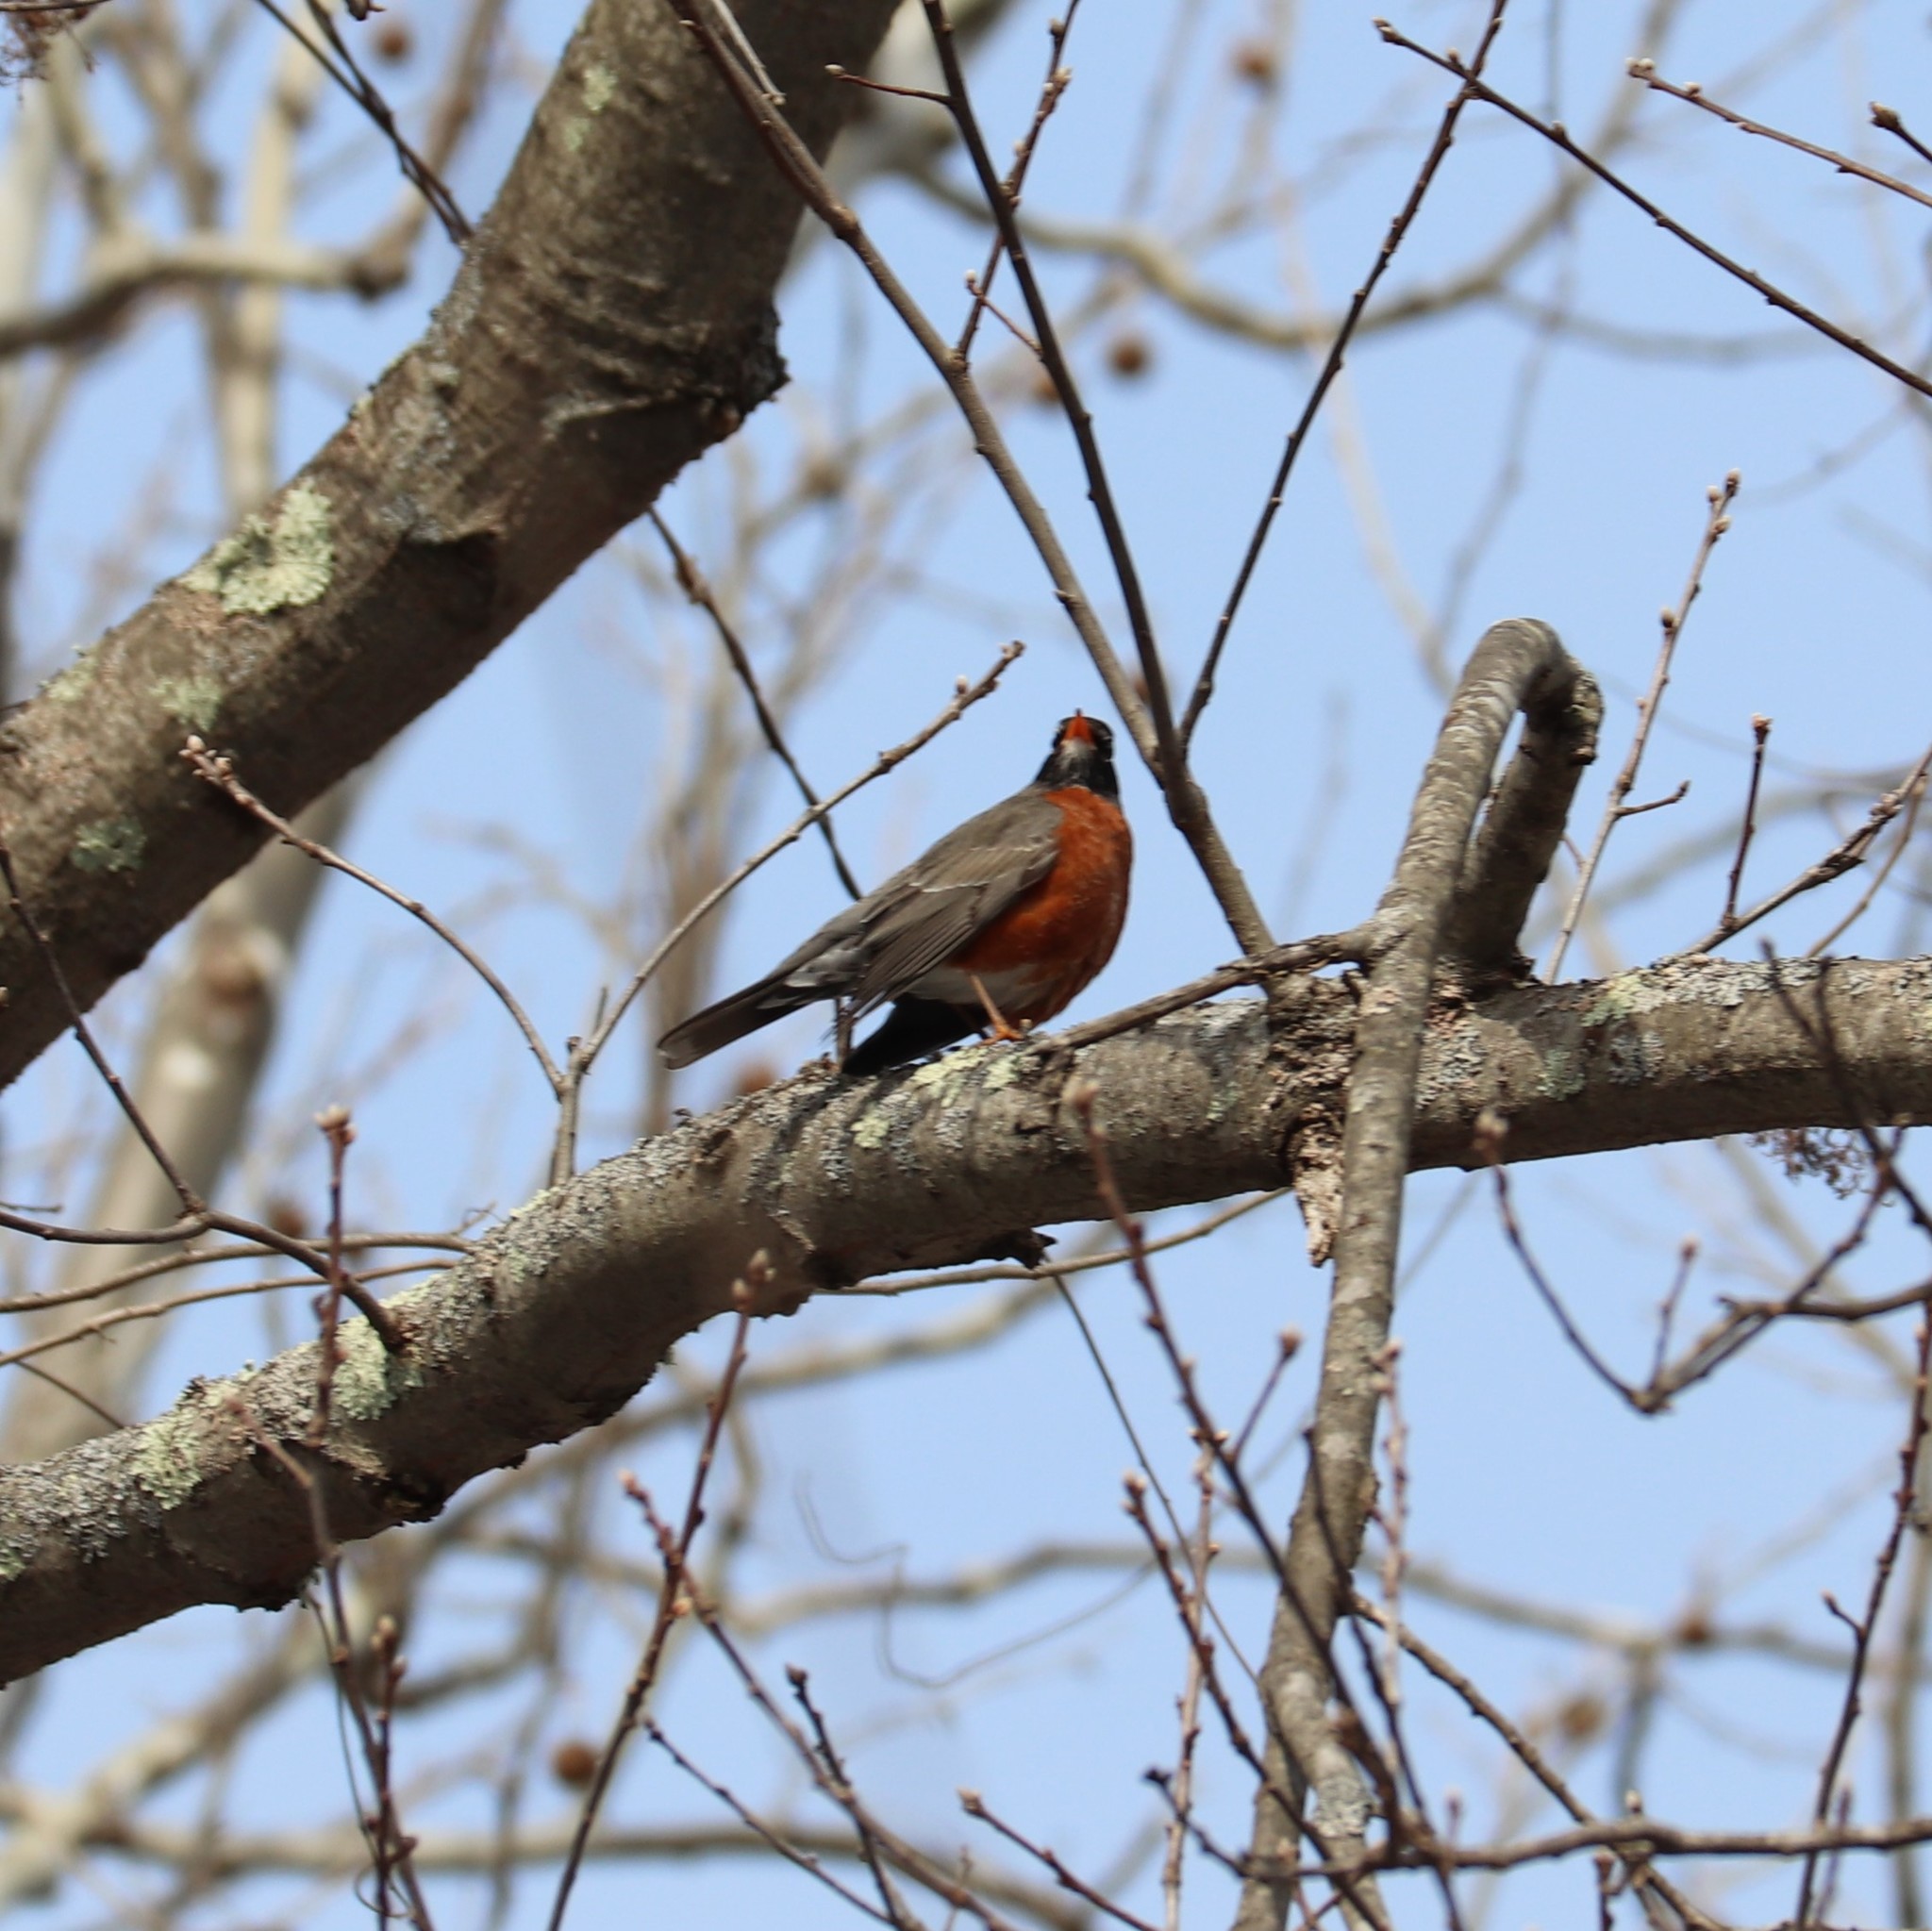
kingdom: Animalia
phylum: Chordata
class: Aves
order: Passeriformes
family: Turdidae
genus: Turdus
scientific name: Turdus migratorius
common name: American robin
